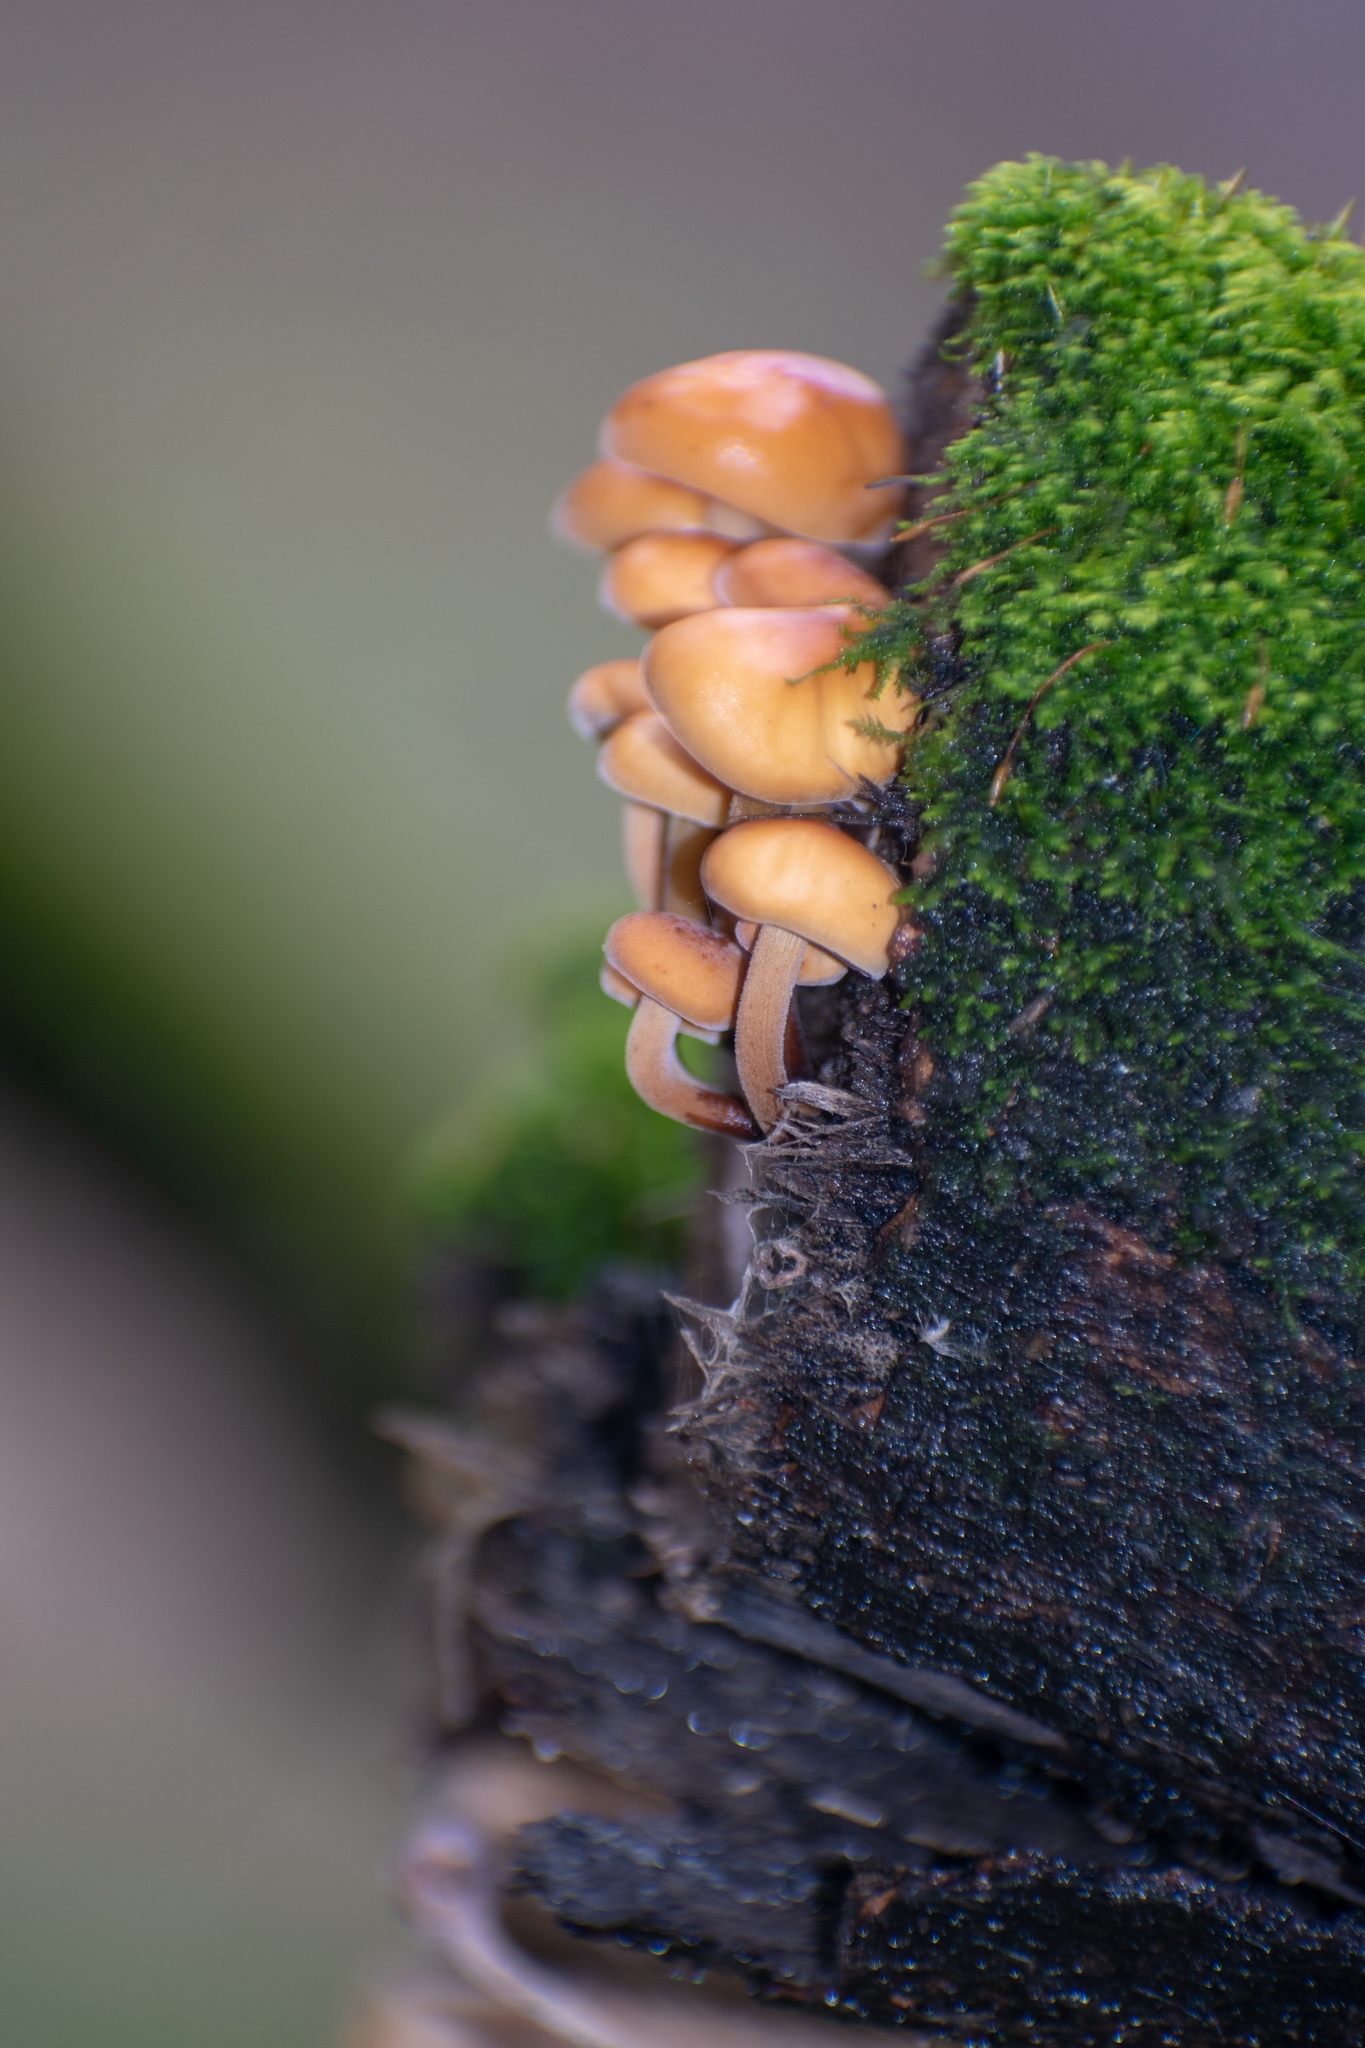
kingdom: Fungi
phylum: Basidiomycota
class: Agaricomycetes
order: Agaricales
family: Physalacriaceae
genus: Flammulina
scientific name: Flammulina
